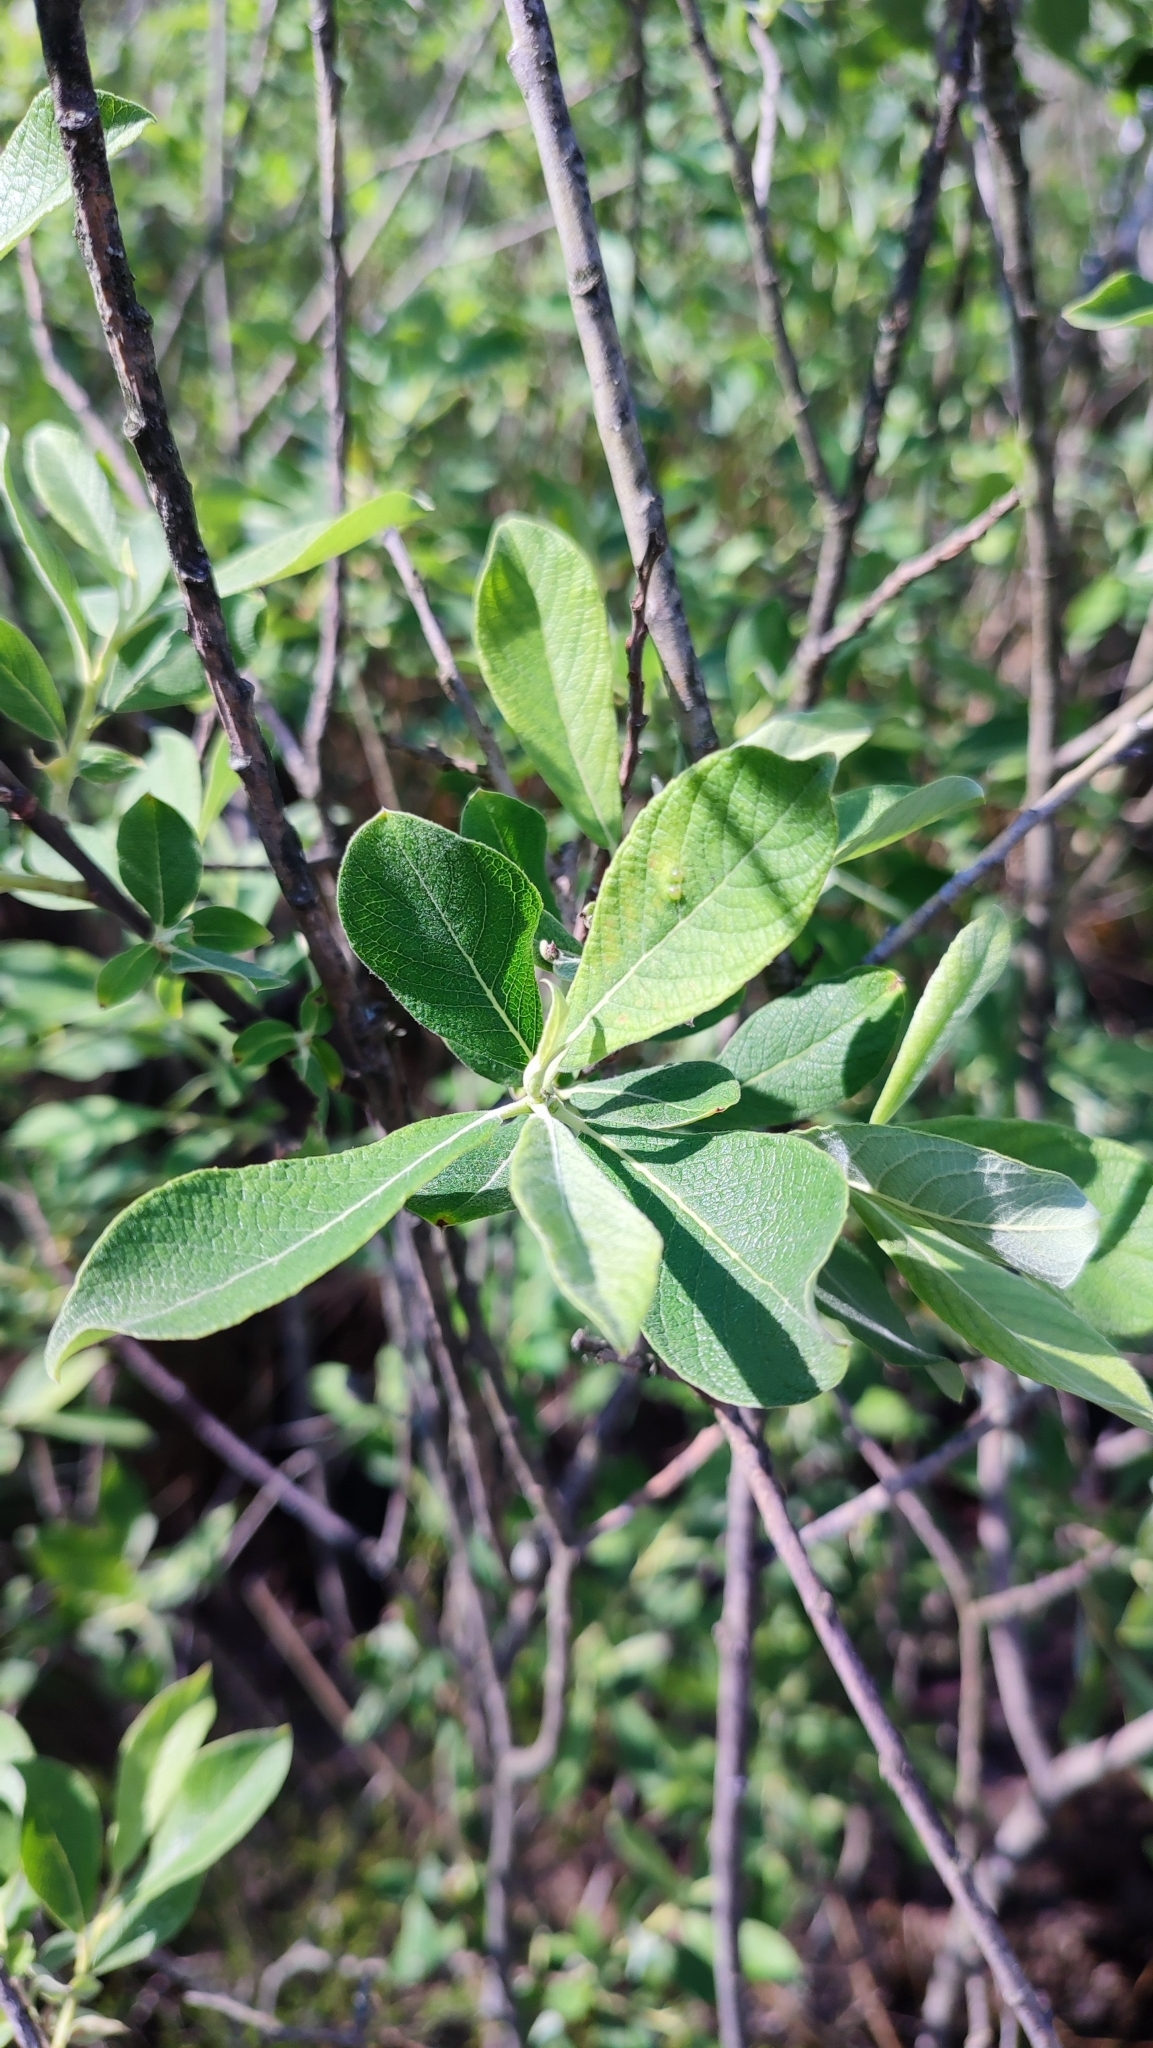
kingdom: Plantae
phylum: Tracheophyta
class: Magnoliopsida
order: Malpighiales
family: Salicaceae
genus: Salix
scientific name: Salix cinerea
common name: Common sallow
